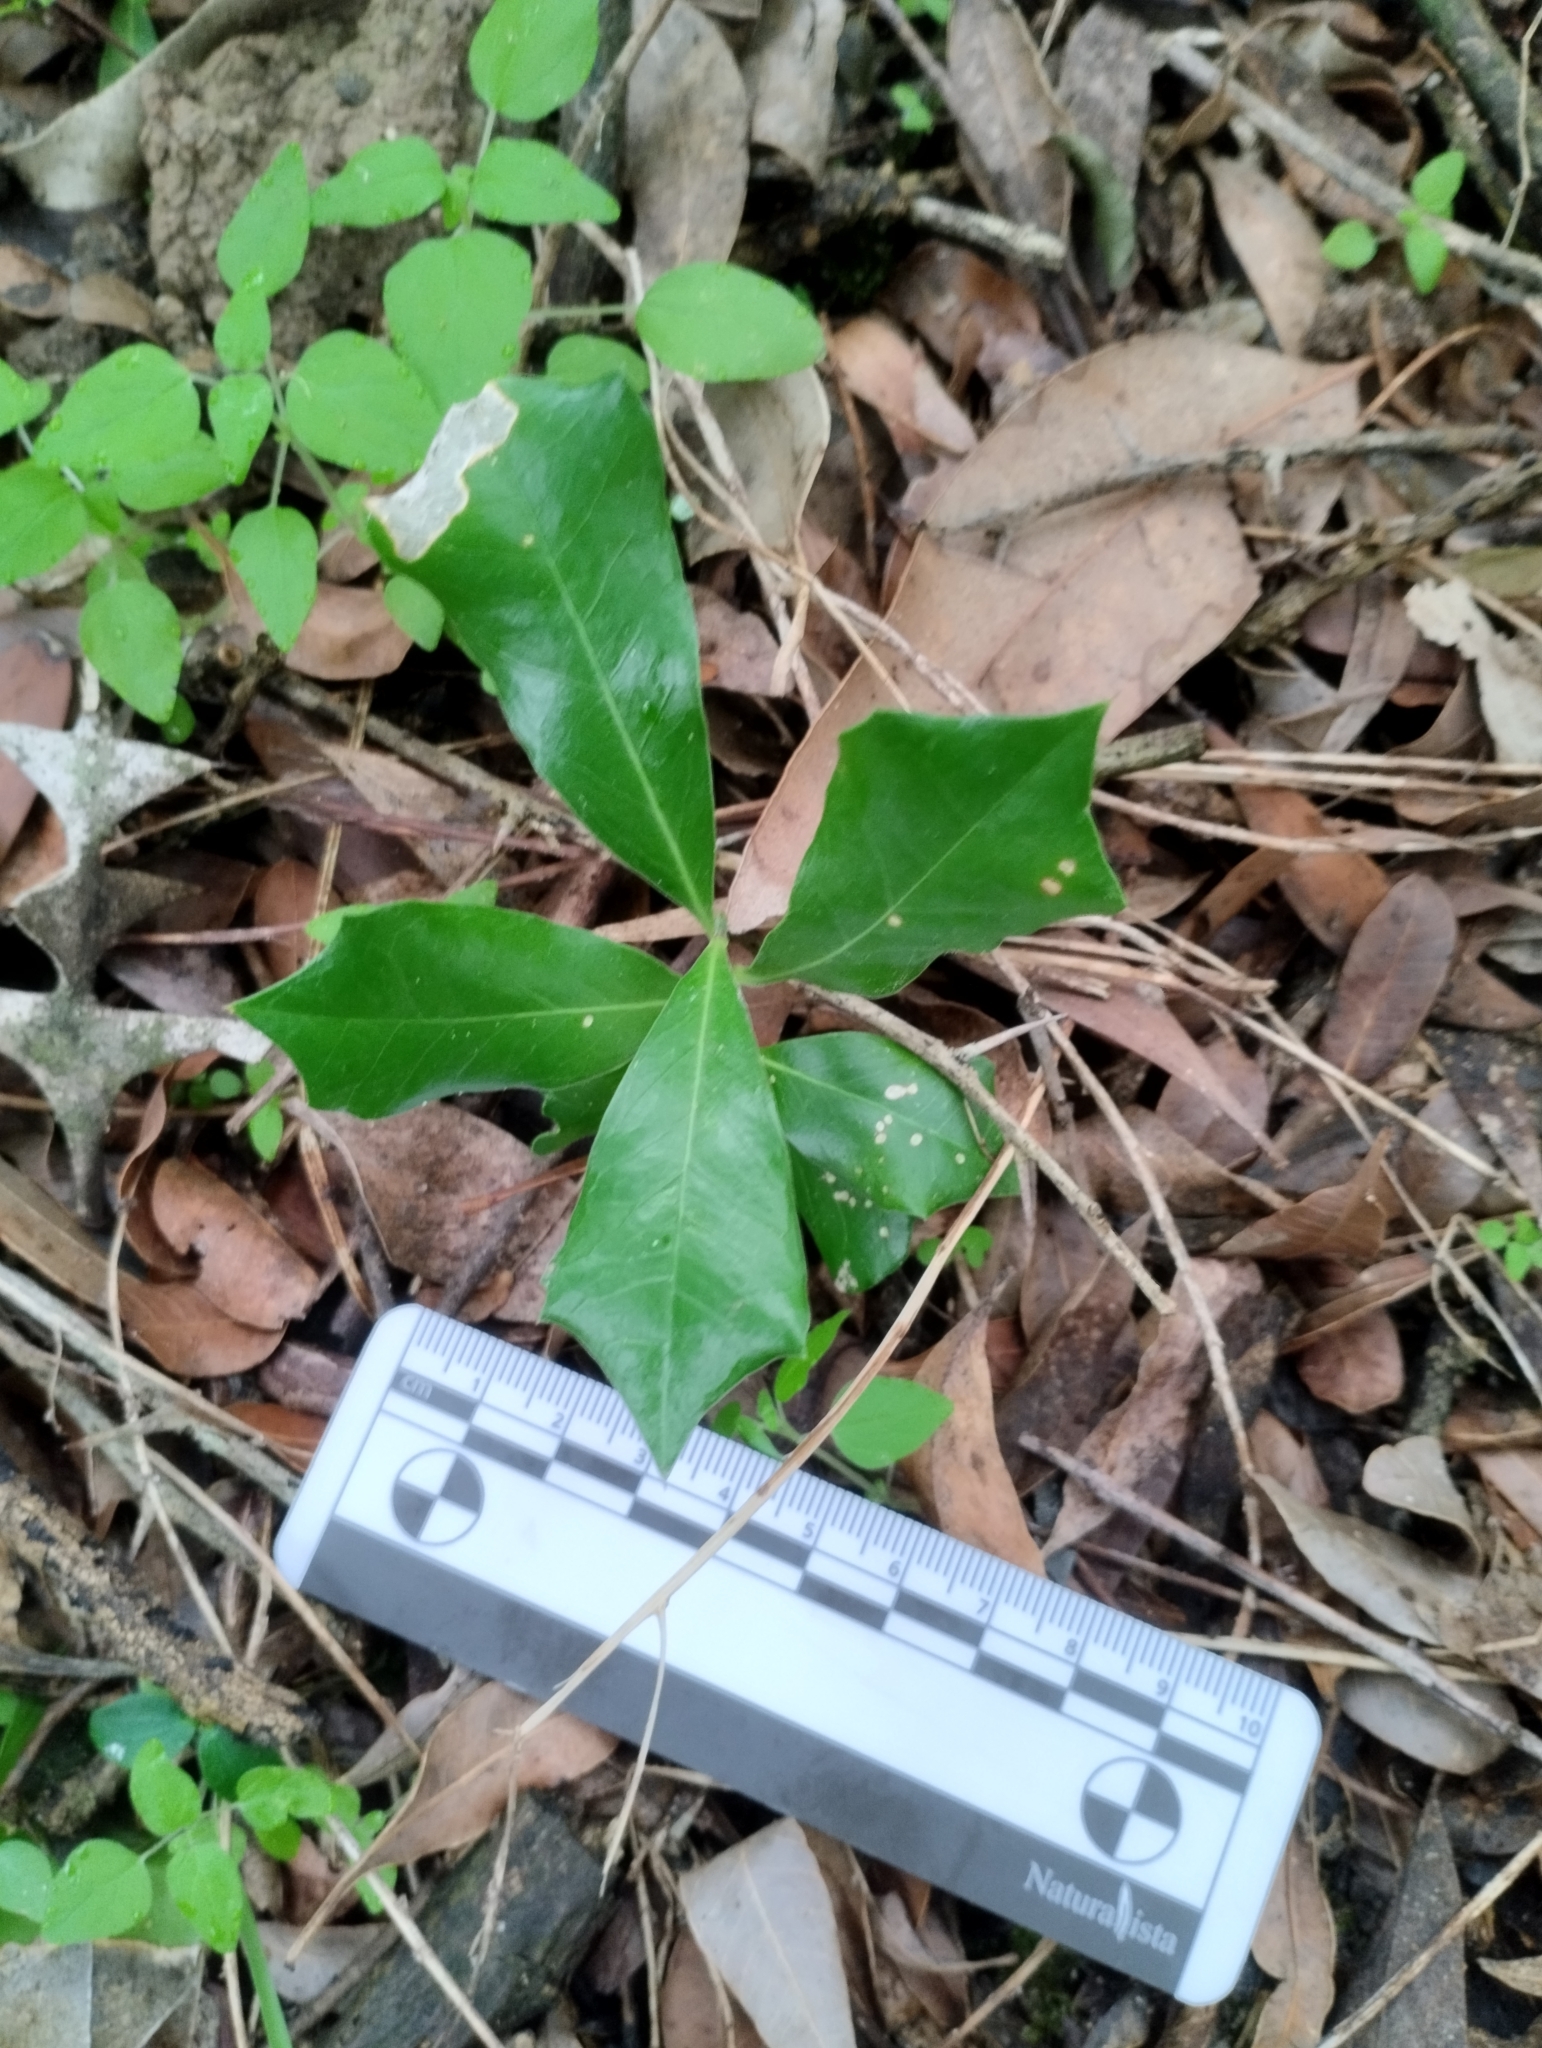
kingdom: Plantae
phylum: Tracheophyta
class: Magnoliopsida
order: Santalales
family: Cervantesiaceae
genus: Jodina
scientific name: Jodina rhombifolia
